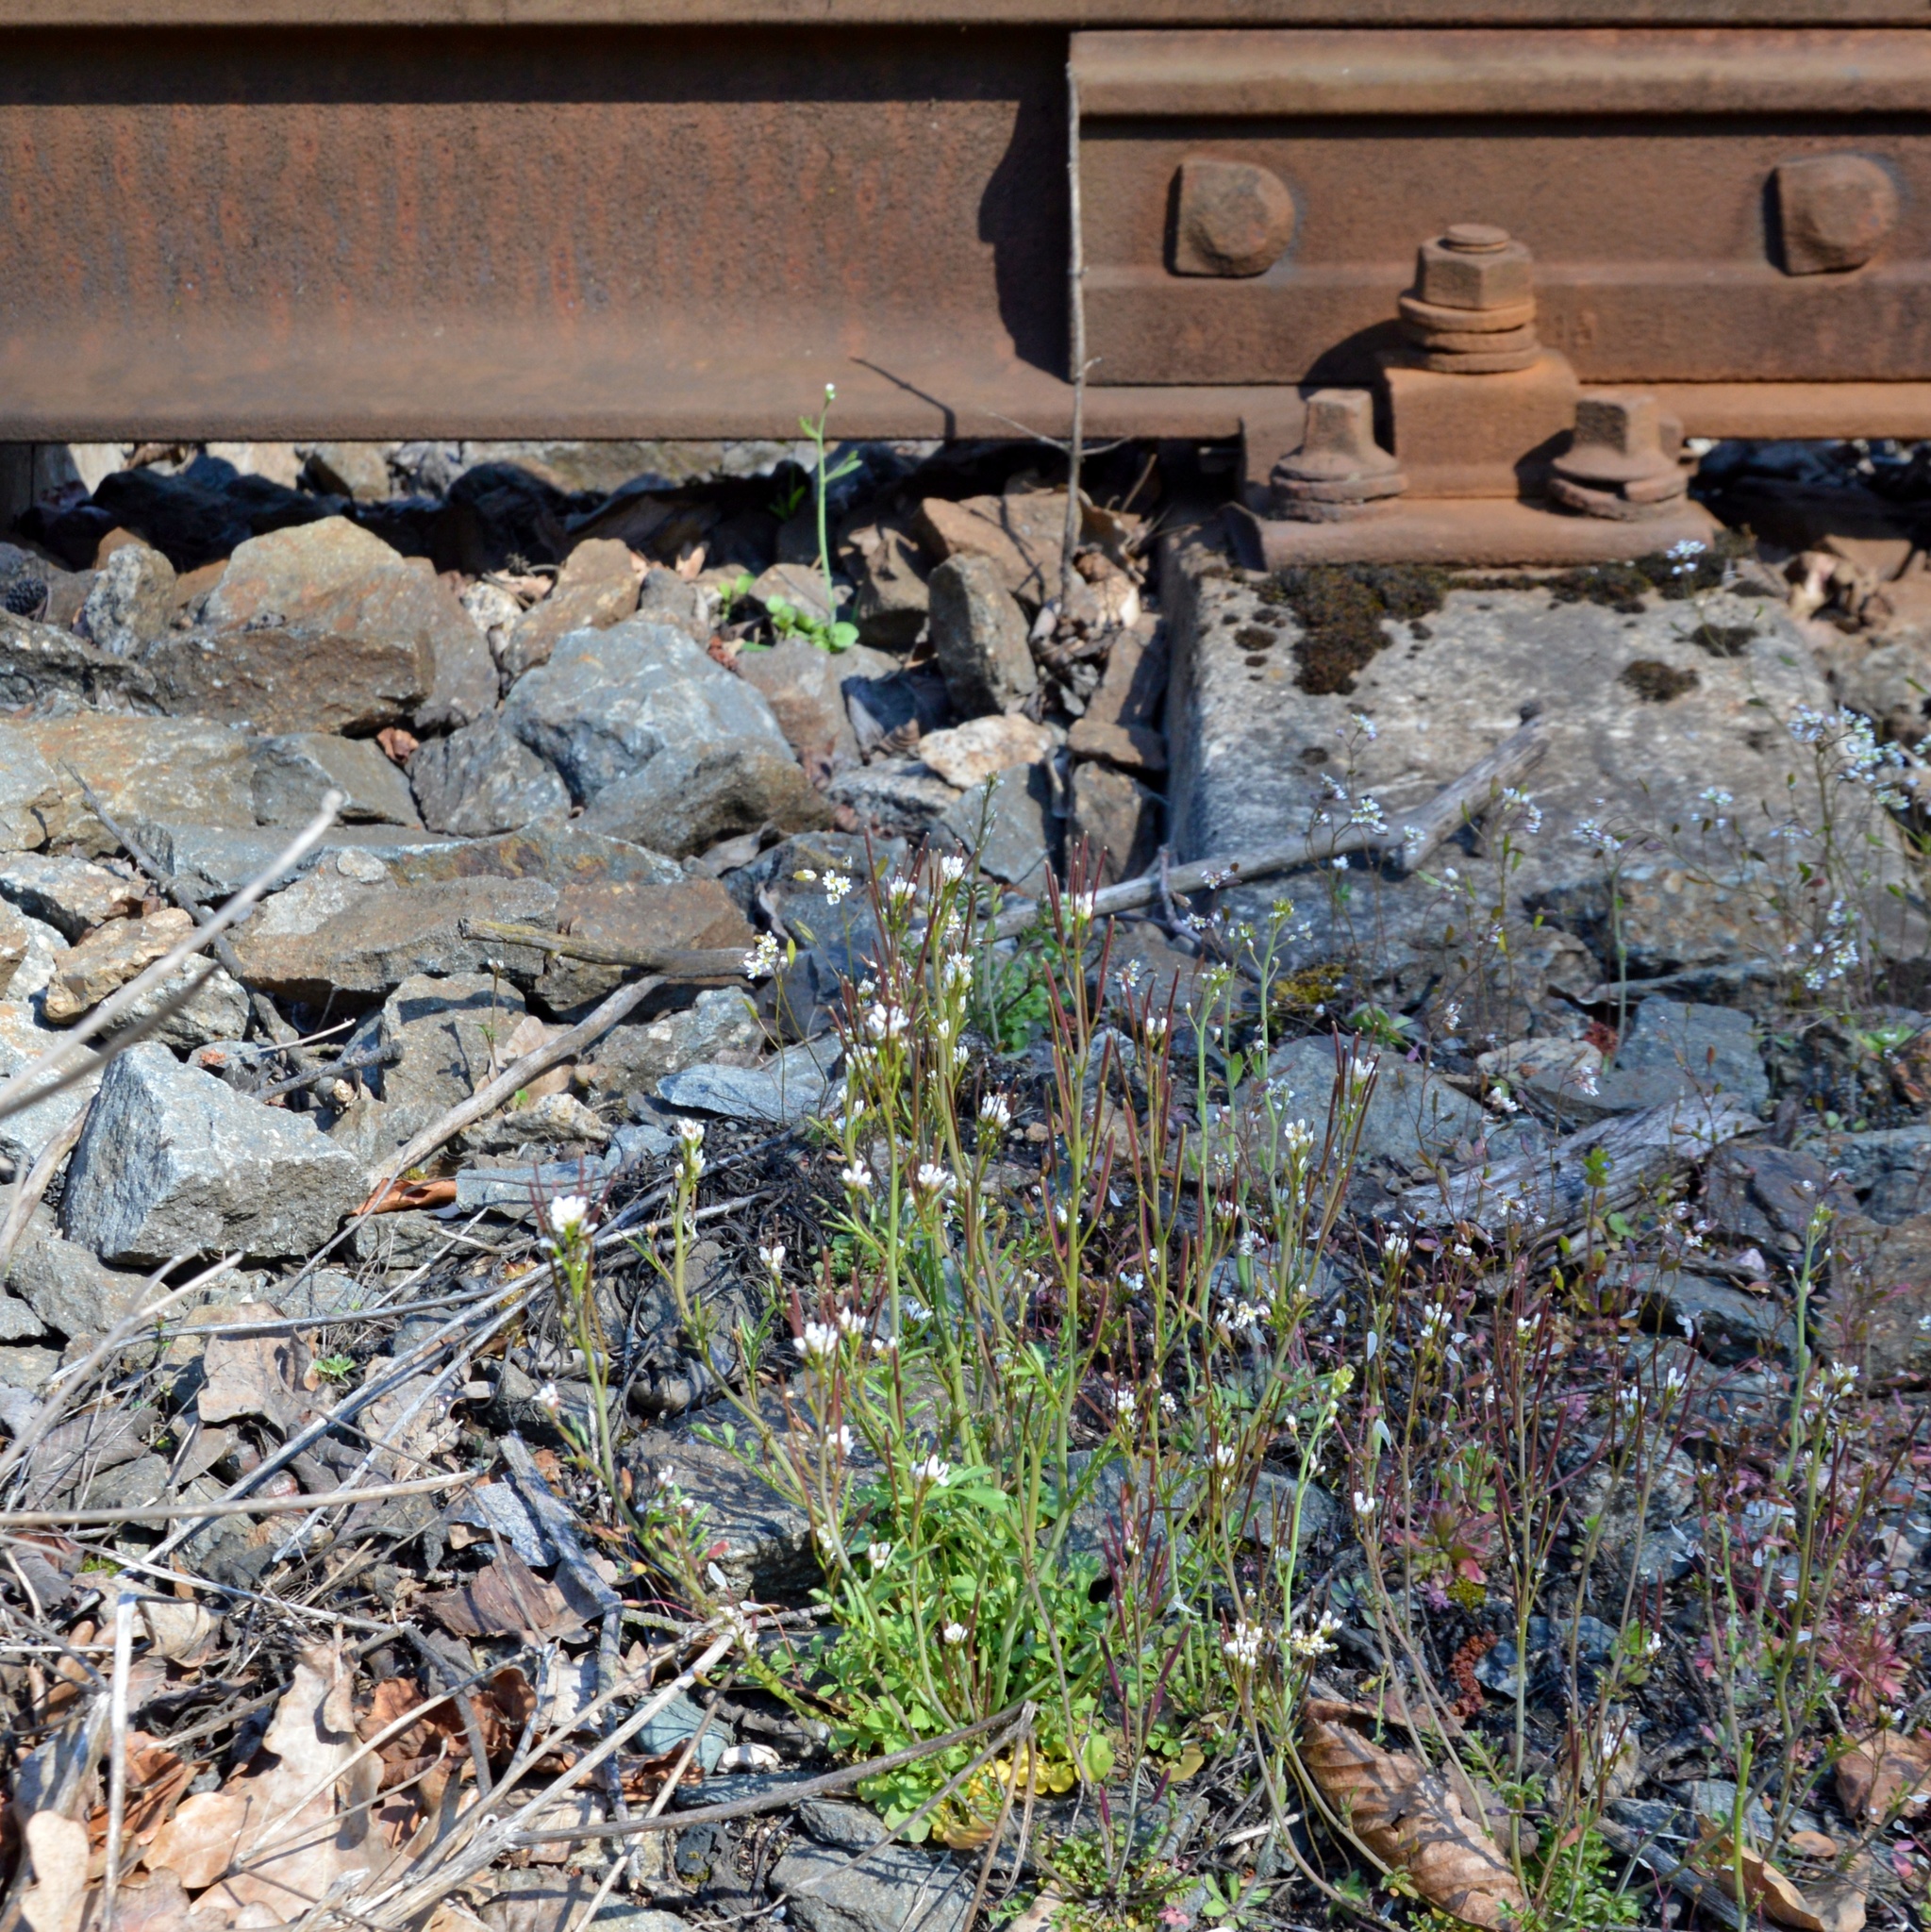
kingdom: Plantae
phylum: Tracheophyta
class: Magnoliopsida
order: Brassicales
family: Brassicaceae
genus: Cardamine
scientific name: Cardamine hirsuta
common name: Hairy bittercress
